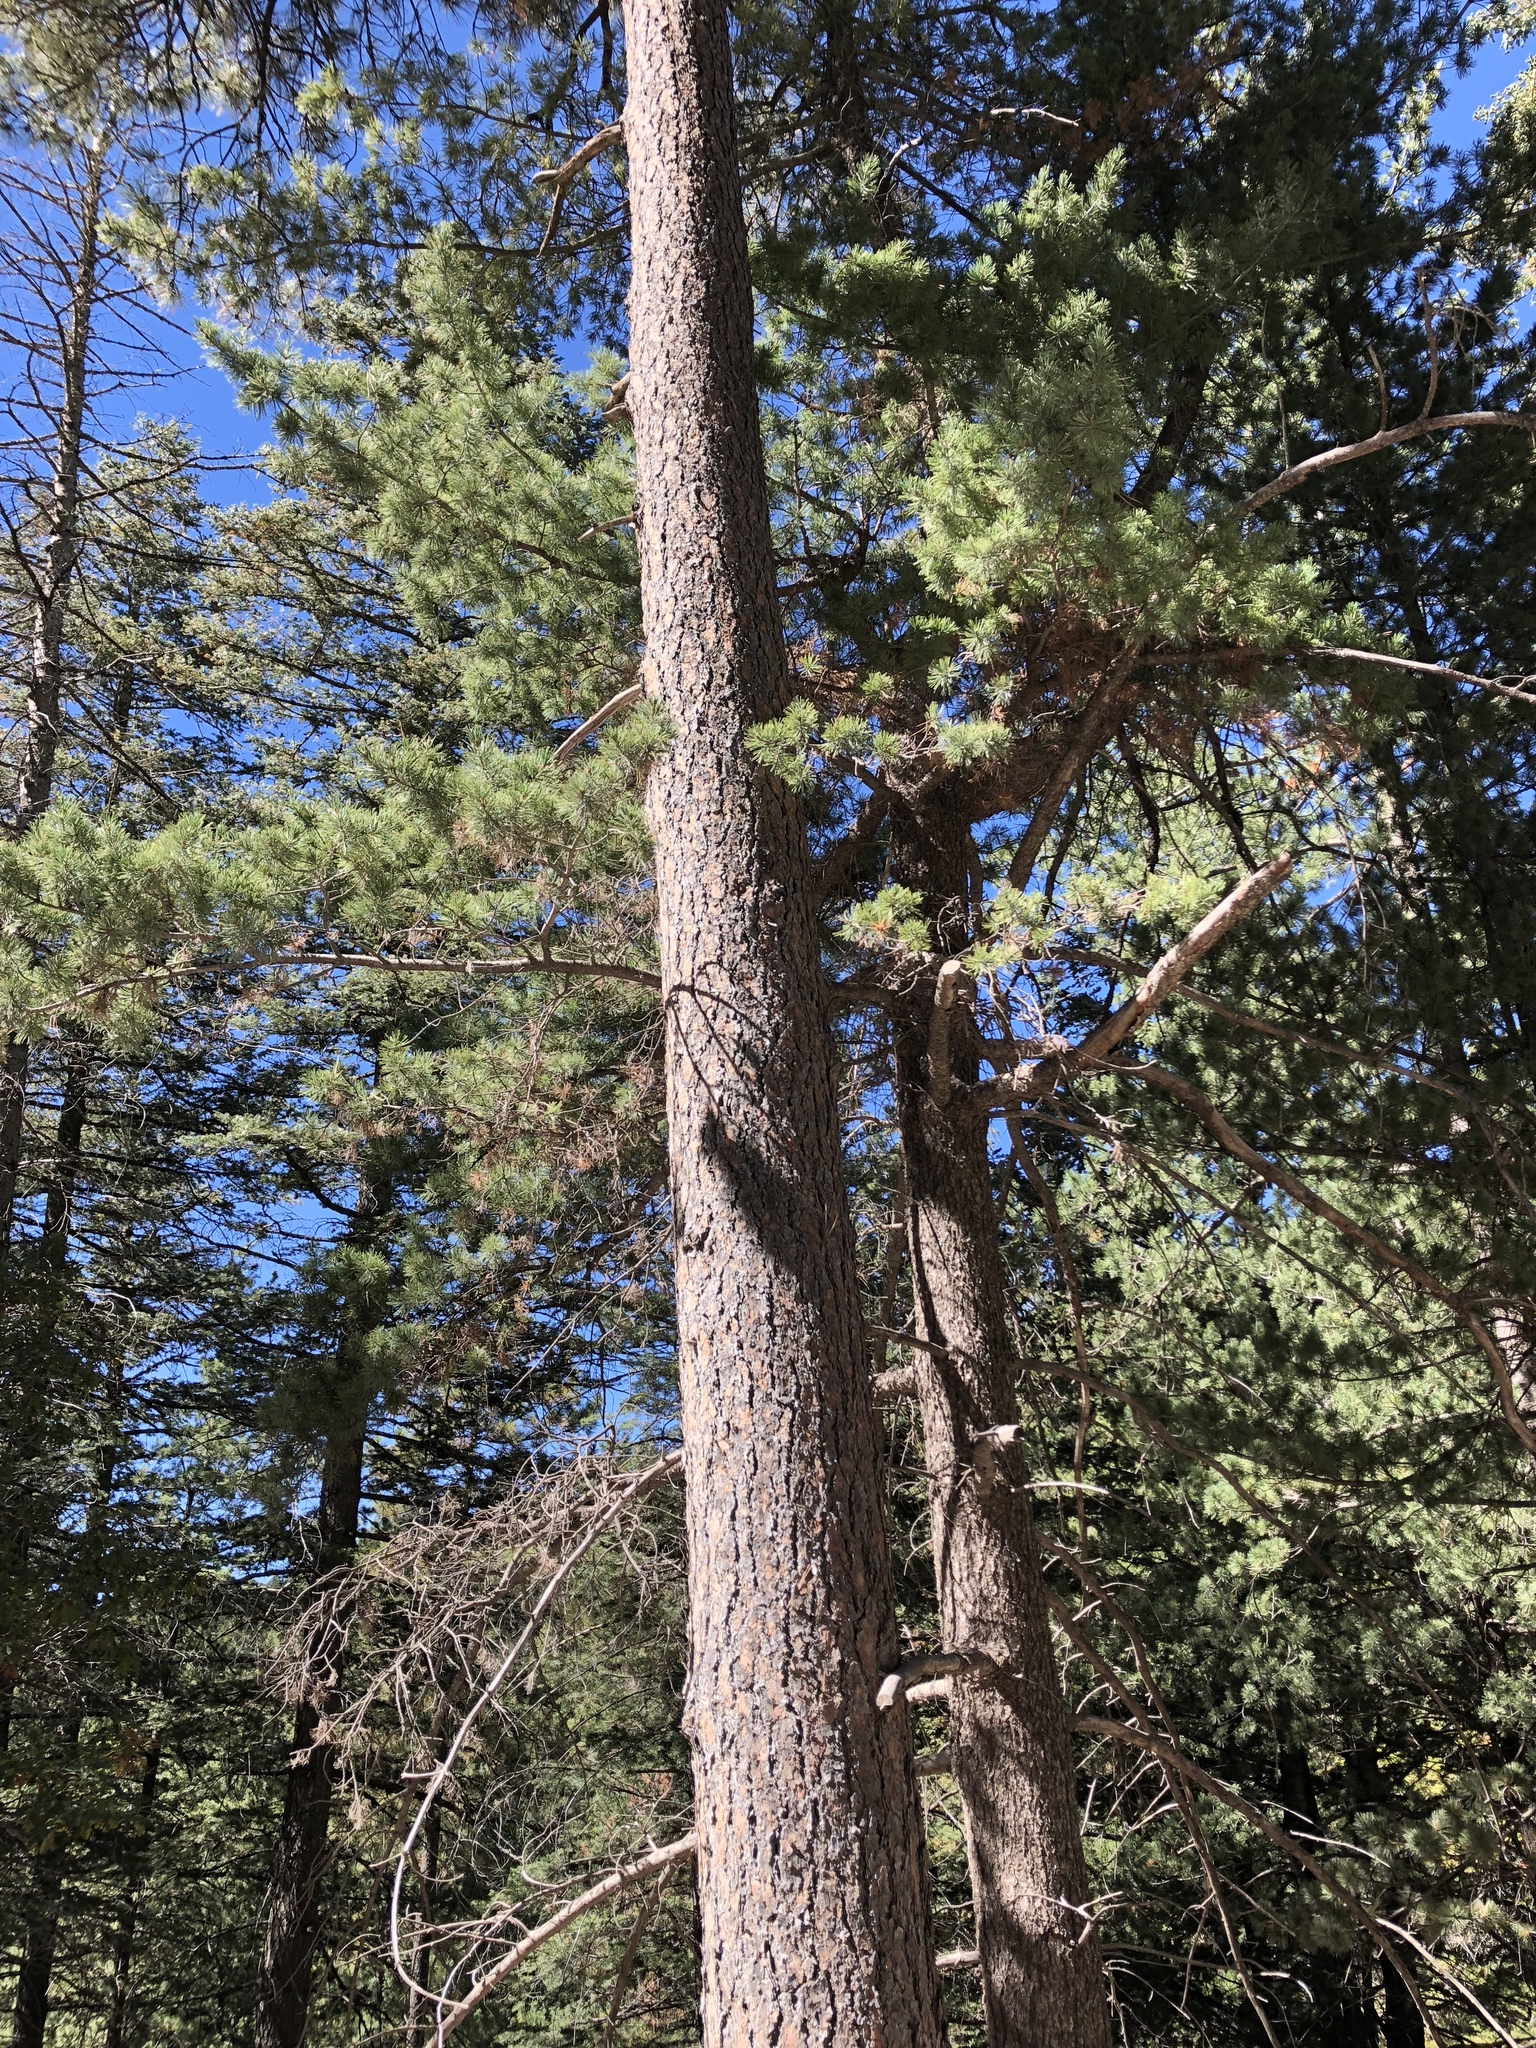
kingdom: Plantae
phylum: Tracheophyta
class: Pinopsida
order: Pinales
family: Pinaceae
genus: Pinus
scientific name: Pinus ponderosa
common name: Western yellow-pine
